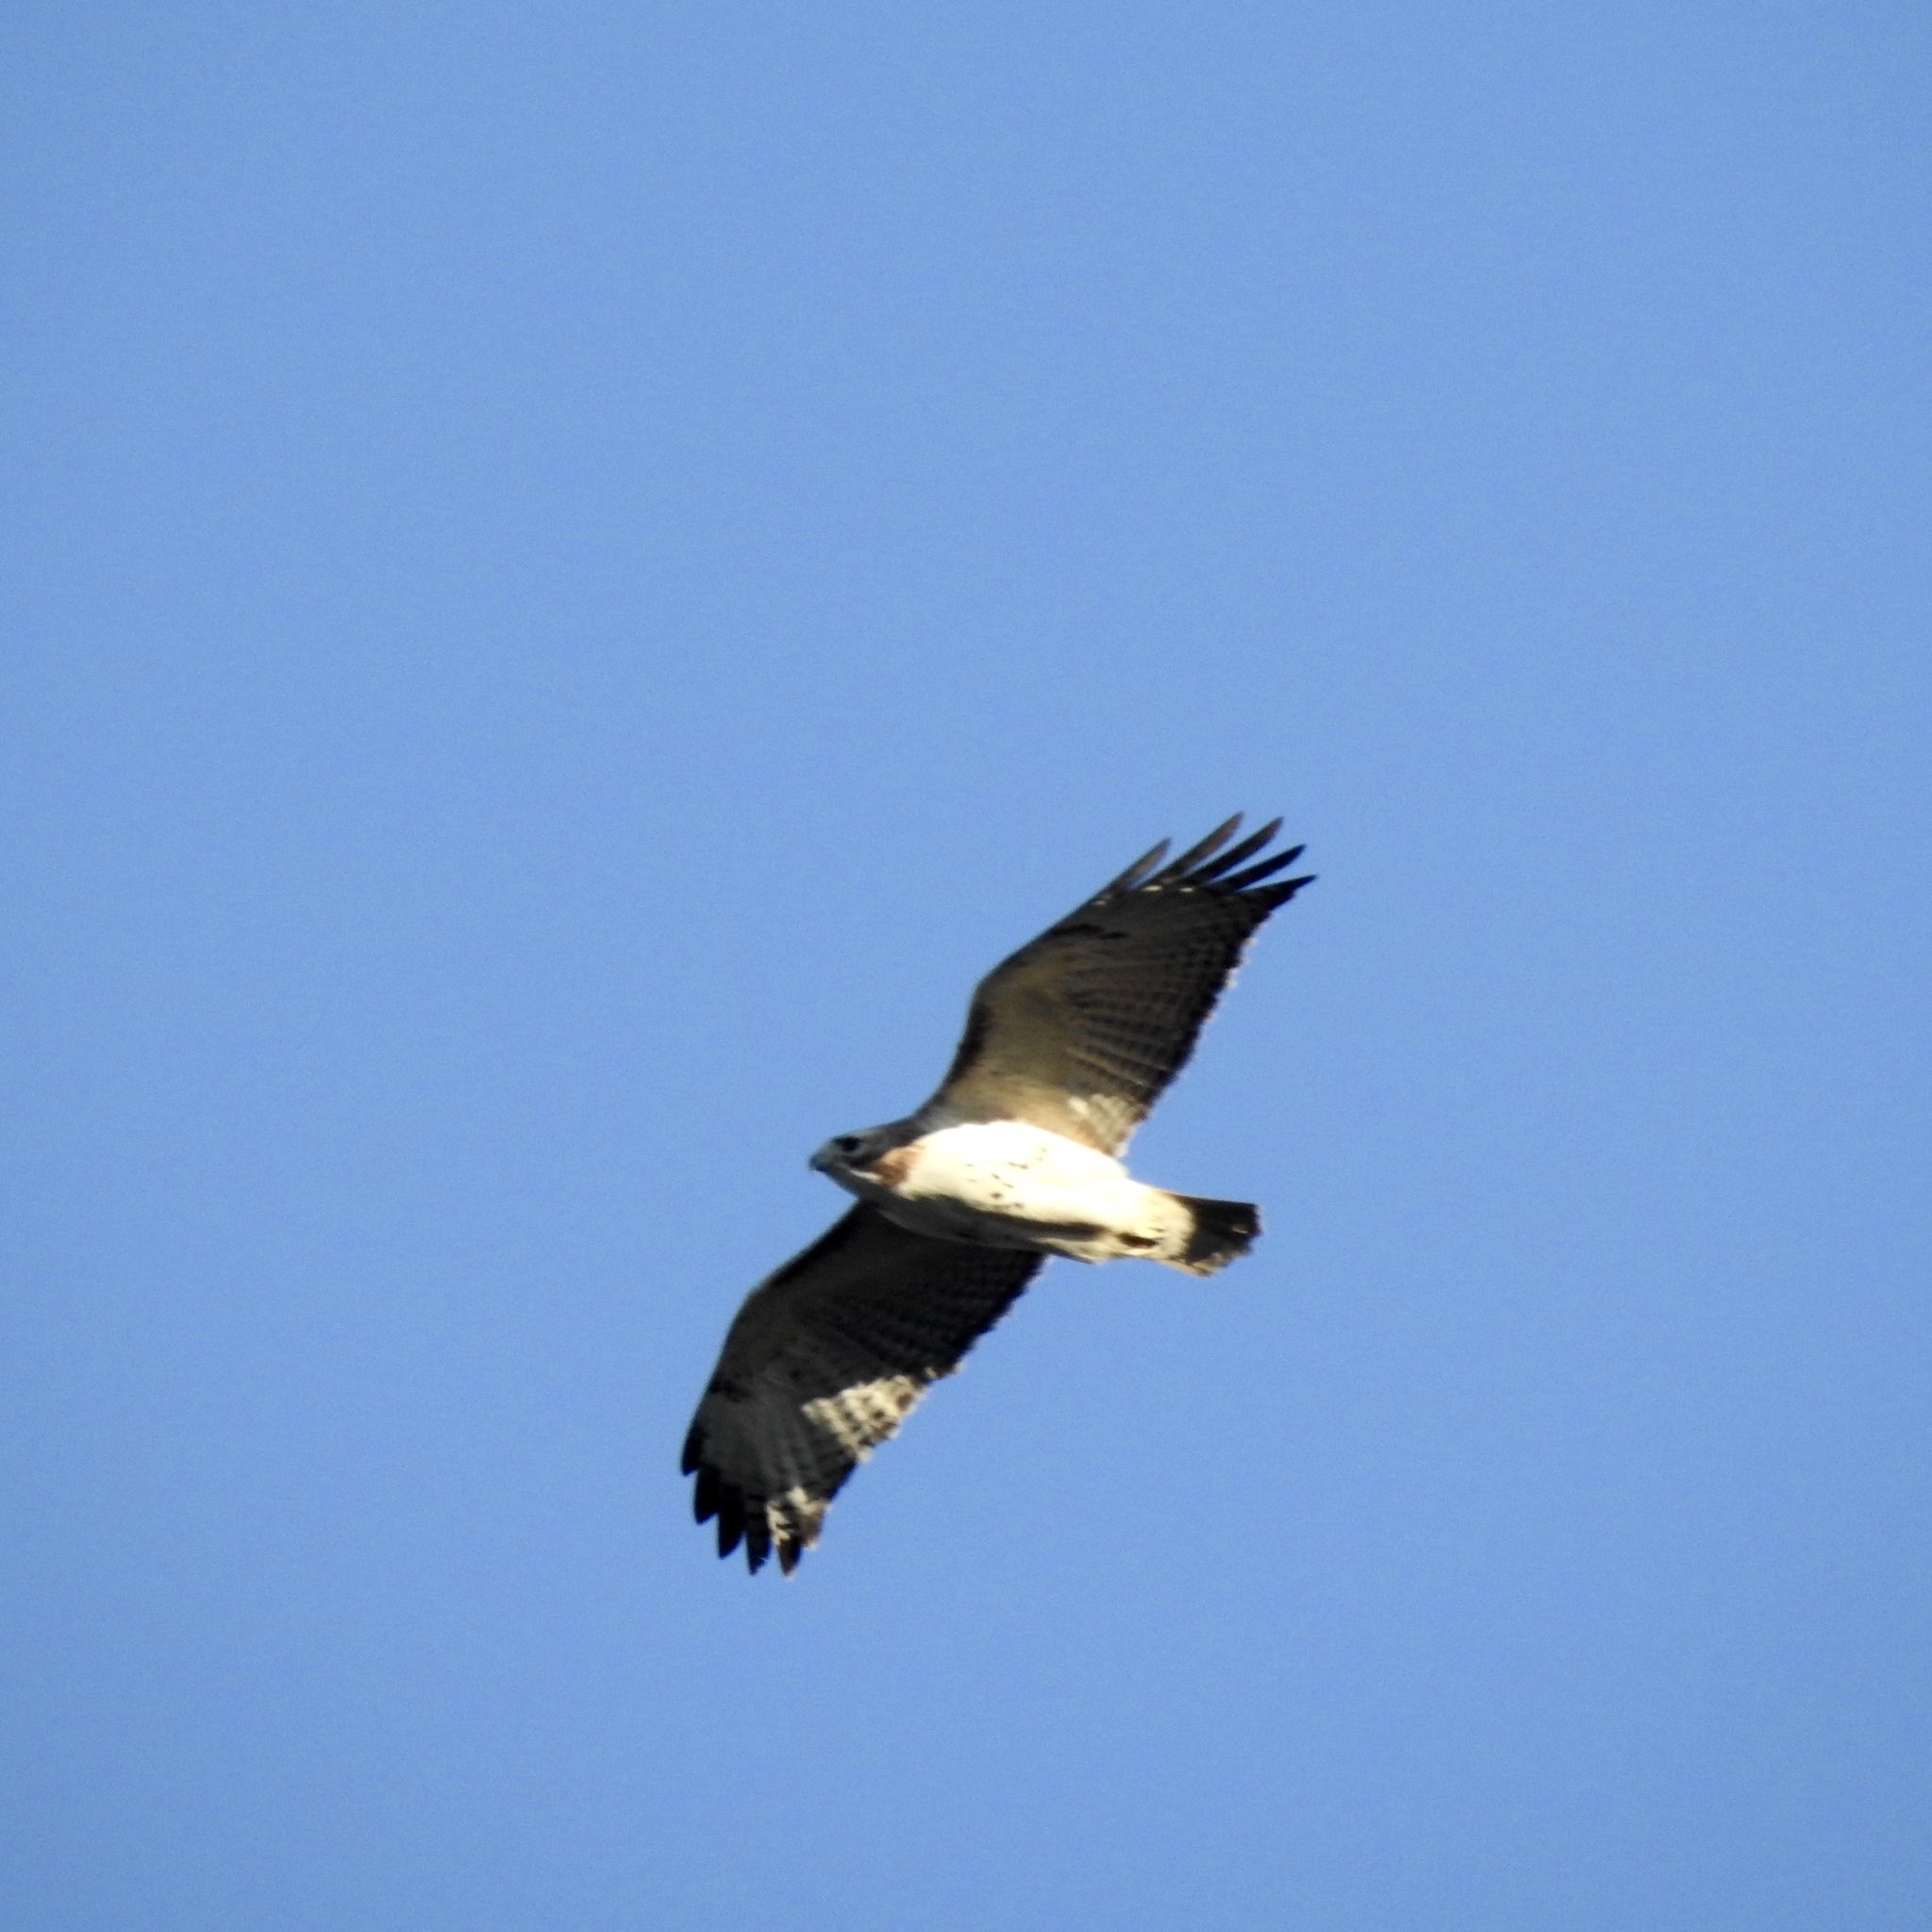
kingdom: Animalia
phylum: Chordata
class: Aves
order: Accipitriformes
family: Accipitridae
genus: Buteo
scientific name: Buteo jamaicensis
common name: Red-tailed hawk
